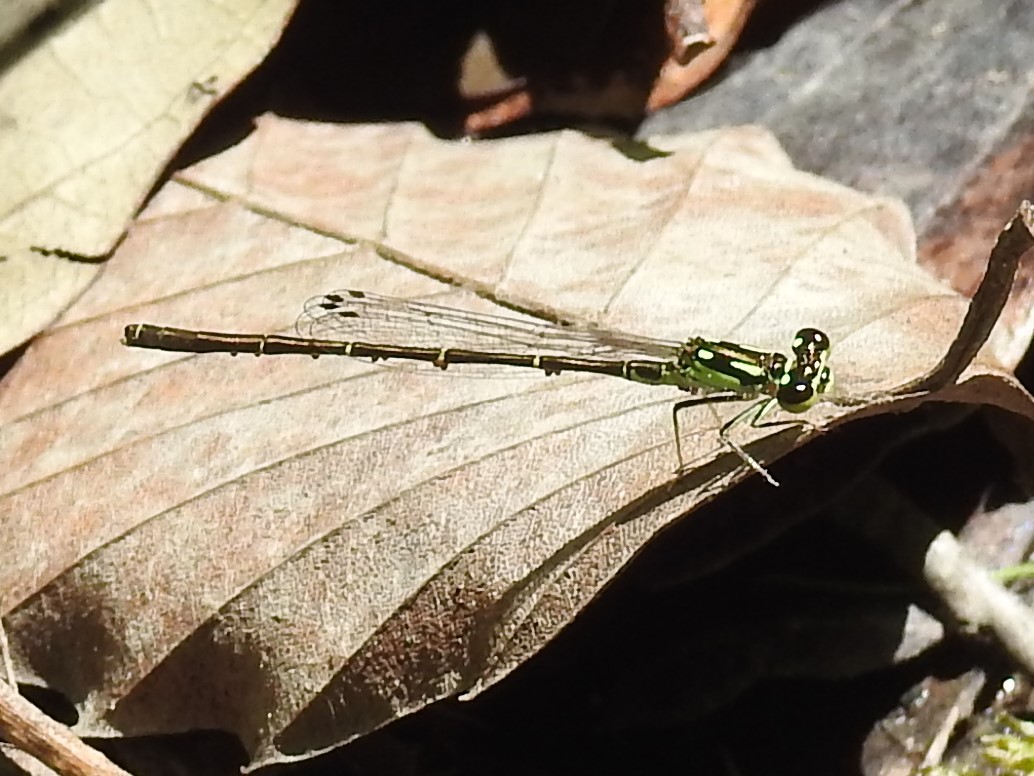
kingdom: Animalia
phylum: Arthropoda
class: Insecta
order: Odonata
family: Coenagrionidae
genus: Ischnura
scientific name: Ischnura posita
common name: Fragile forktail
